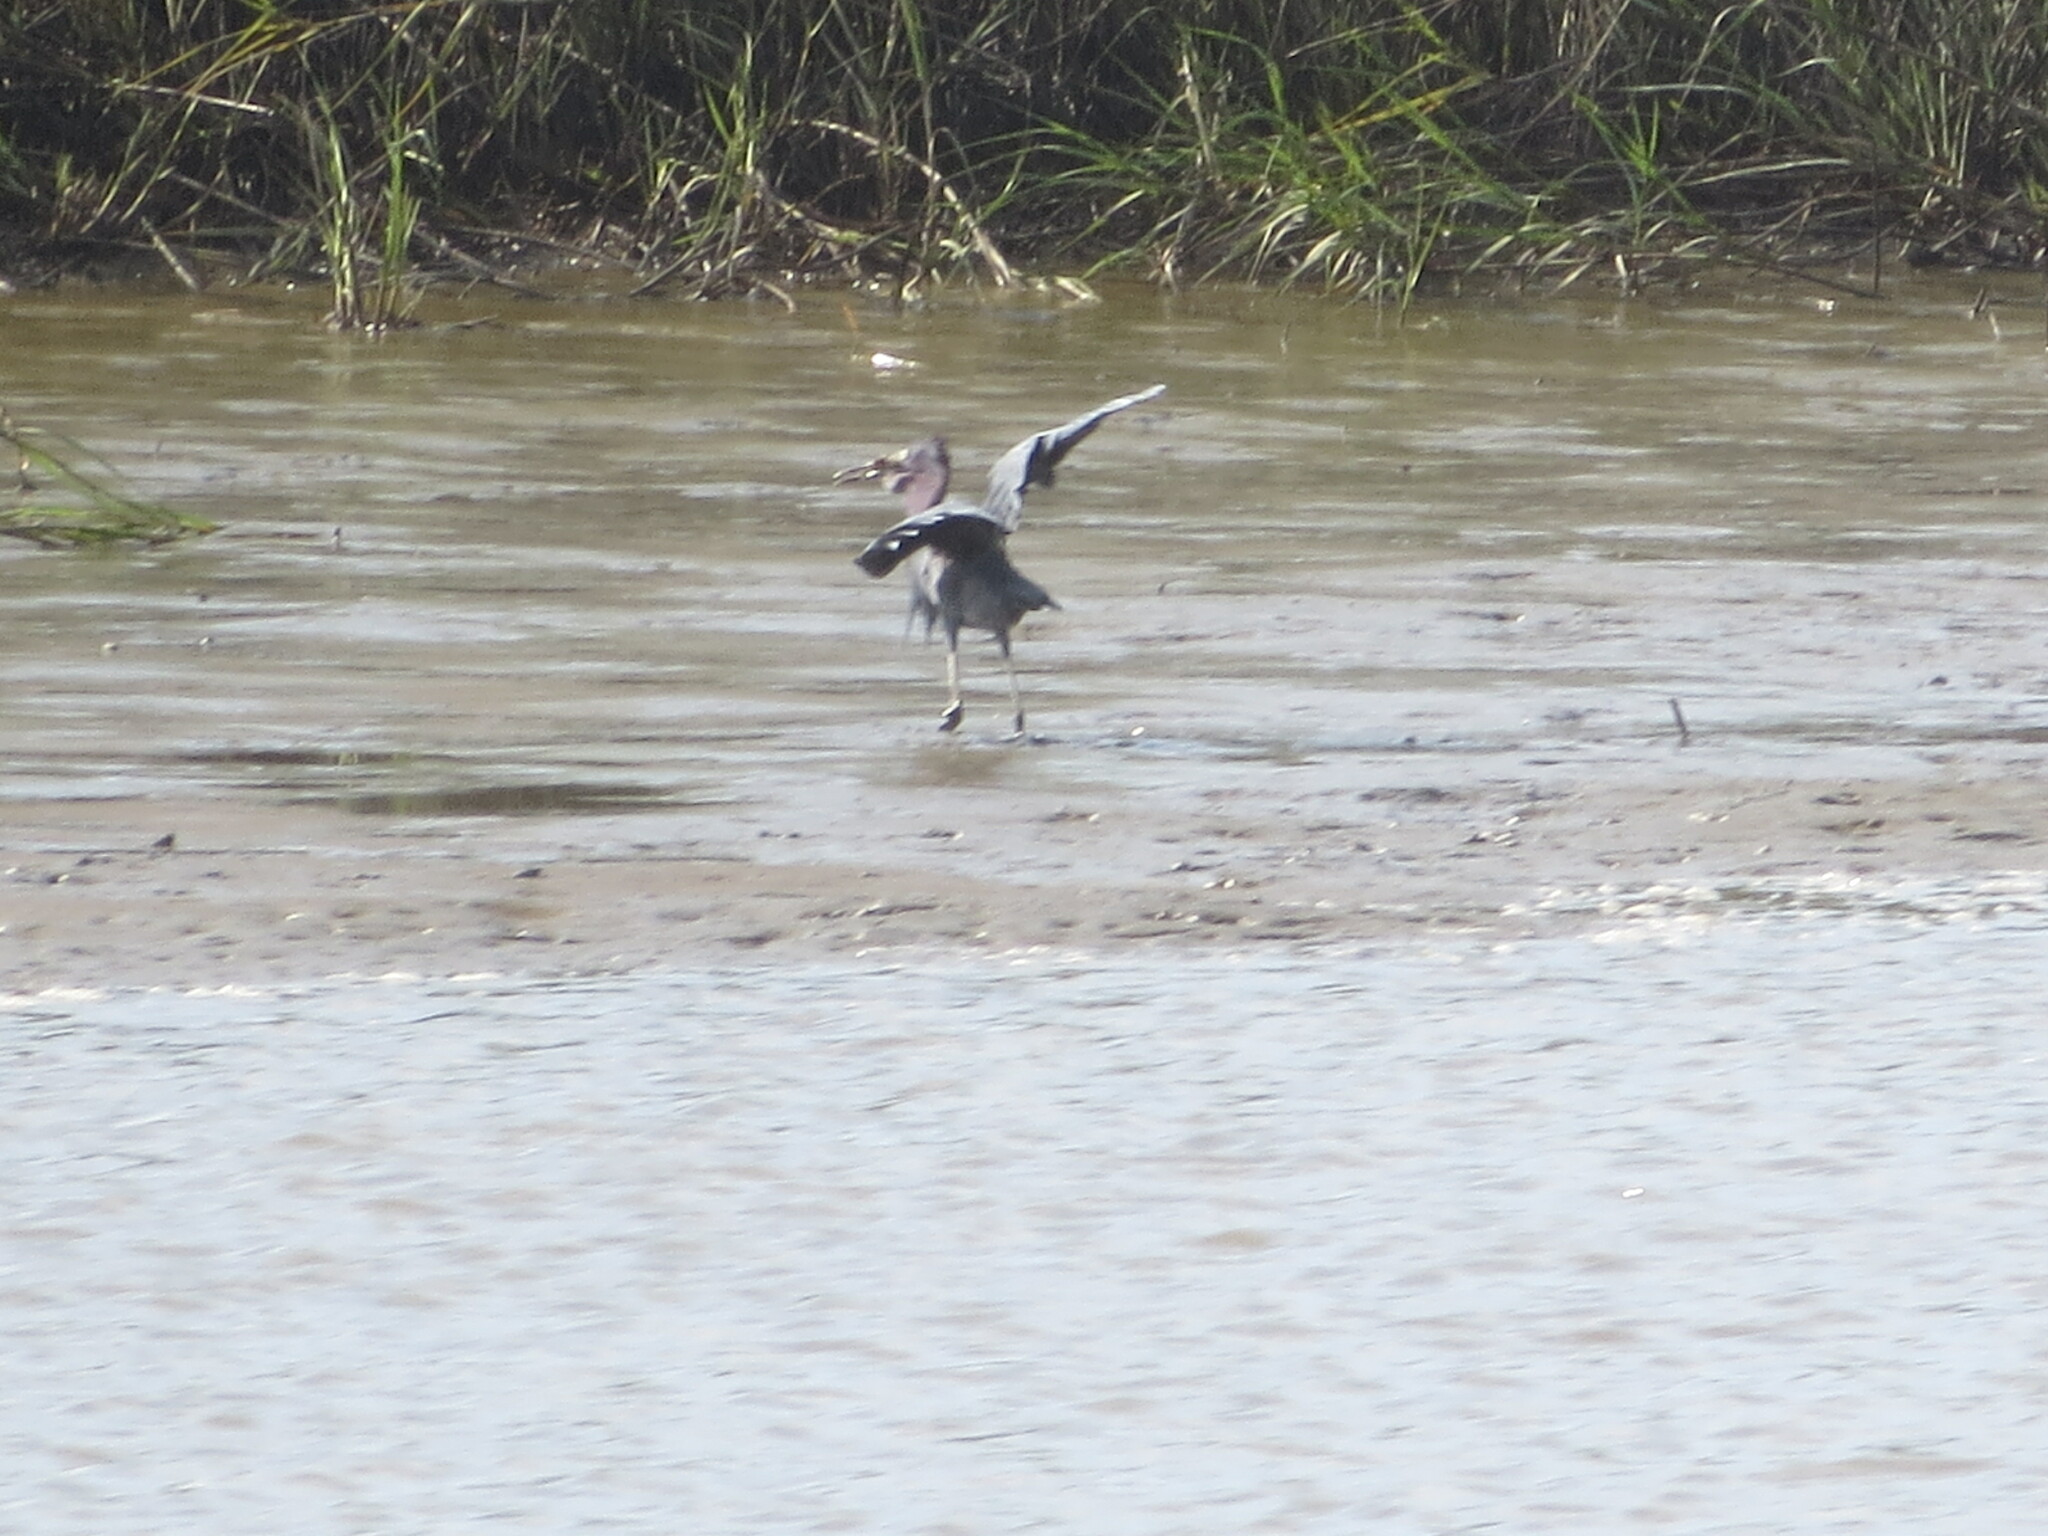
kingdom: Animalia
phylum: Chordata
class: Aves
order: Pelecaniformes
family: Ardeidae
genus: Egretta
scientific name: Egretta caerulea
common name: Little blue heron
